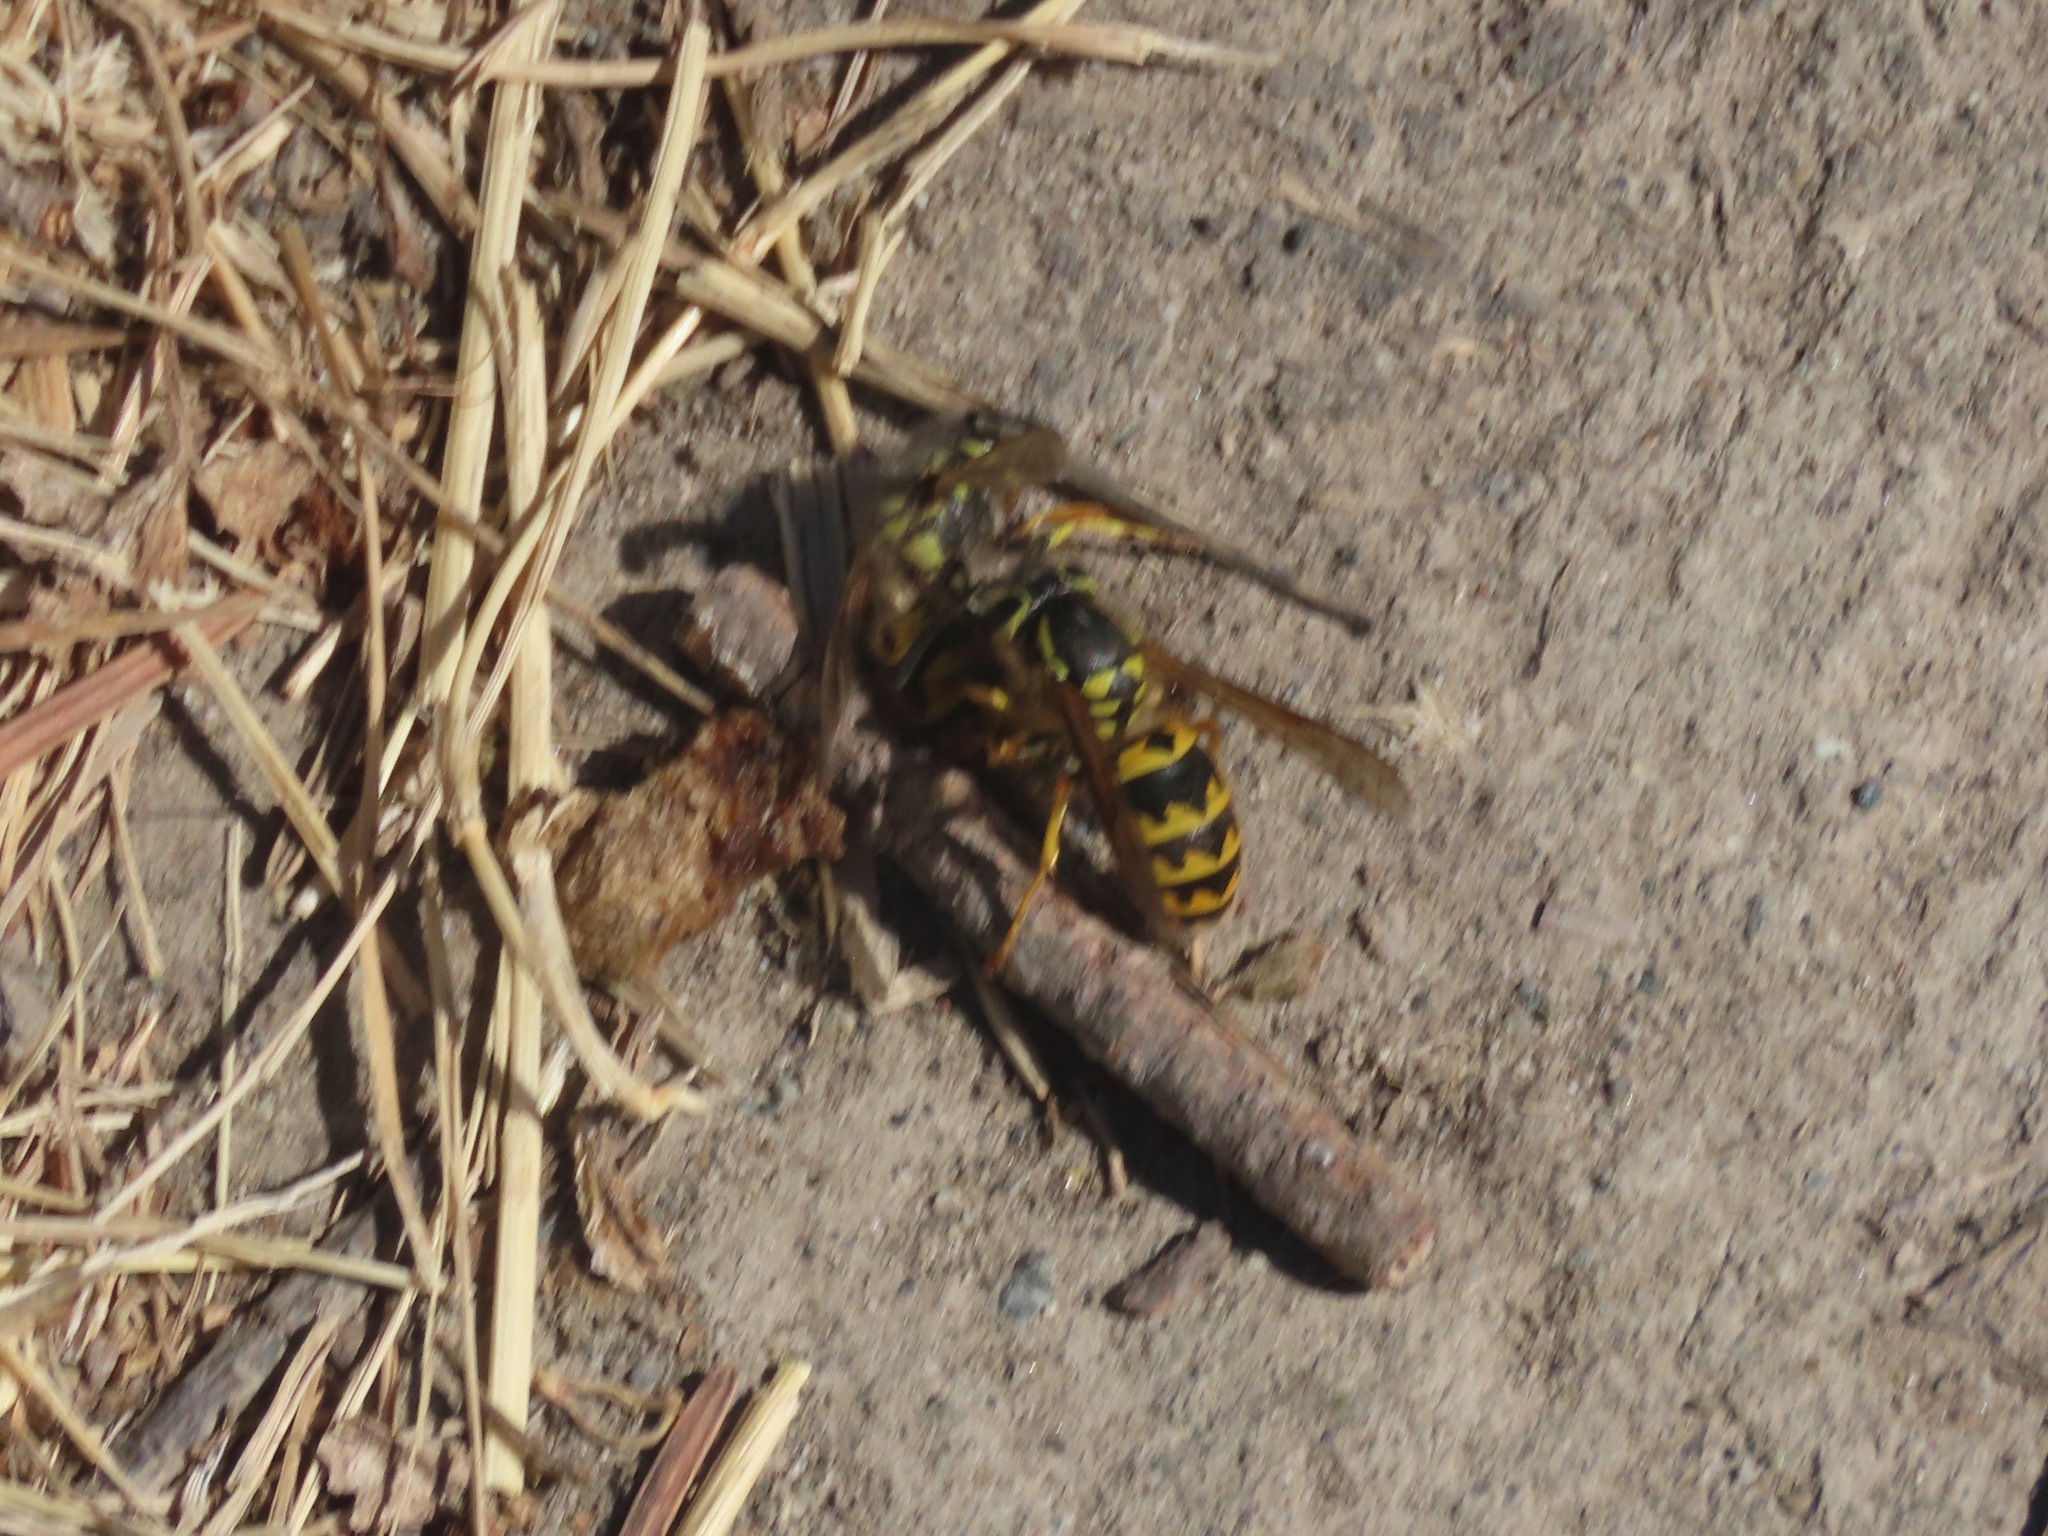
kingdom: Animalia
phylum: Arthropoda
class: Insecta
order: Hymenoptera
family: Vespidae
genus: Vespula
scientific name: Vespula pensylvanica
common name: Western yellowjacket
